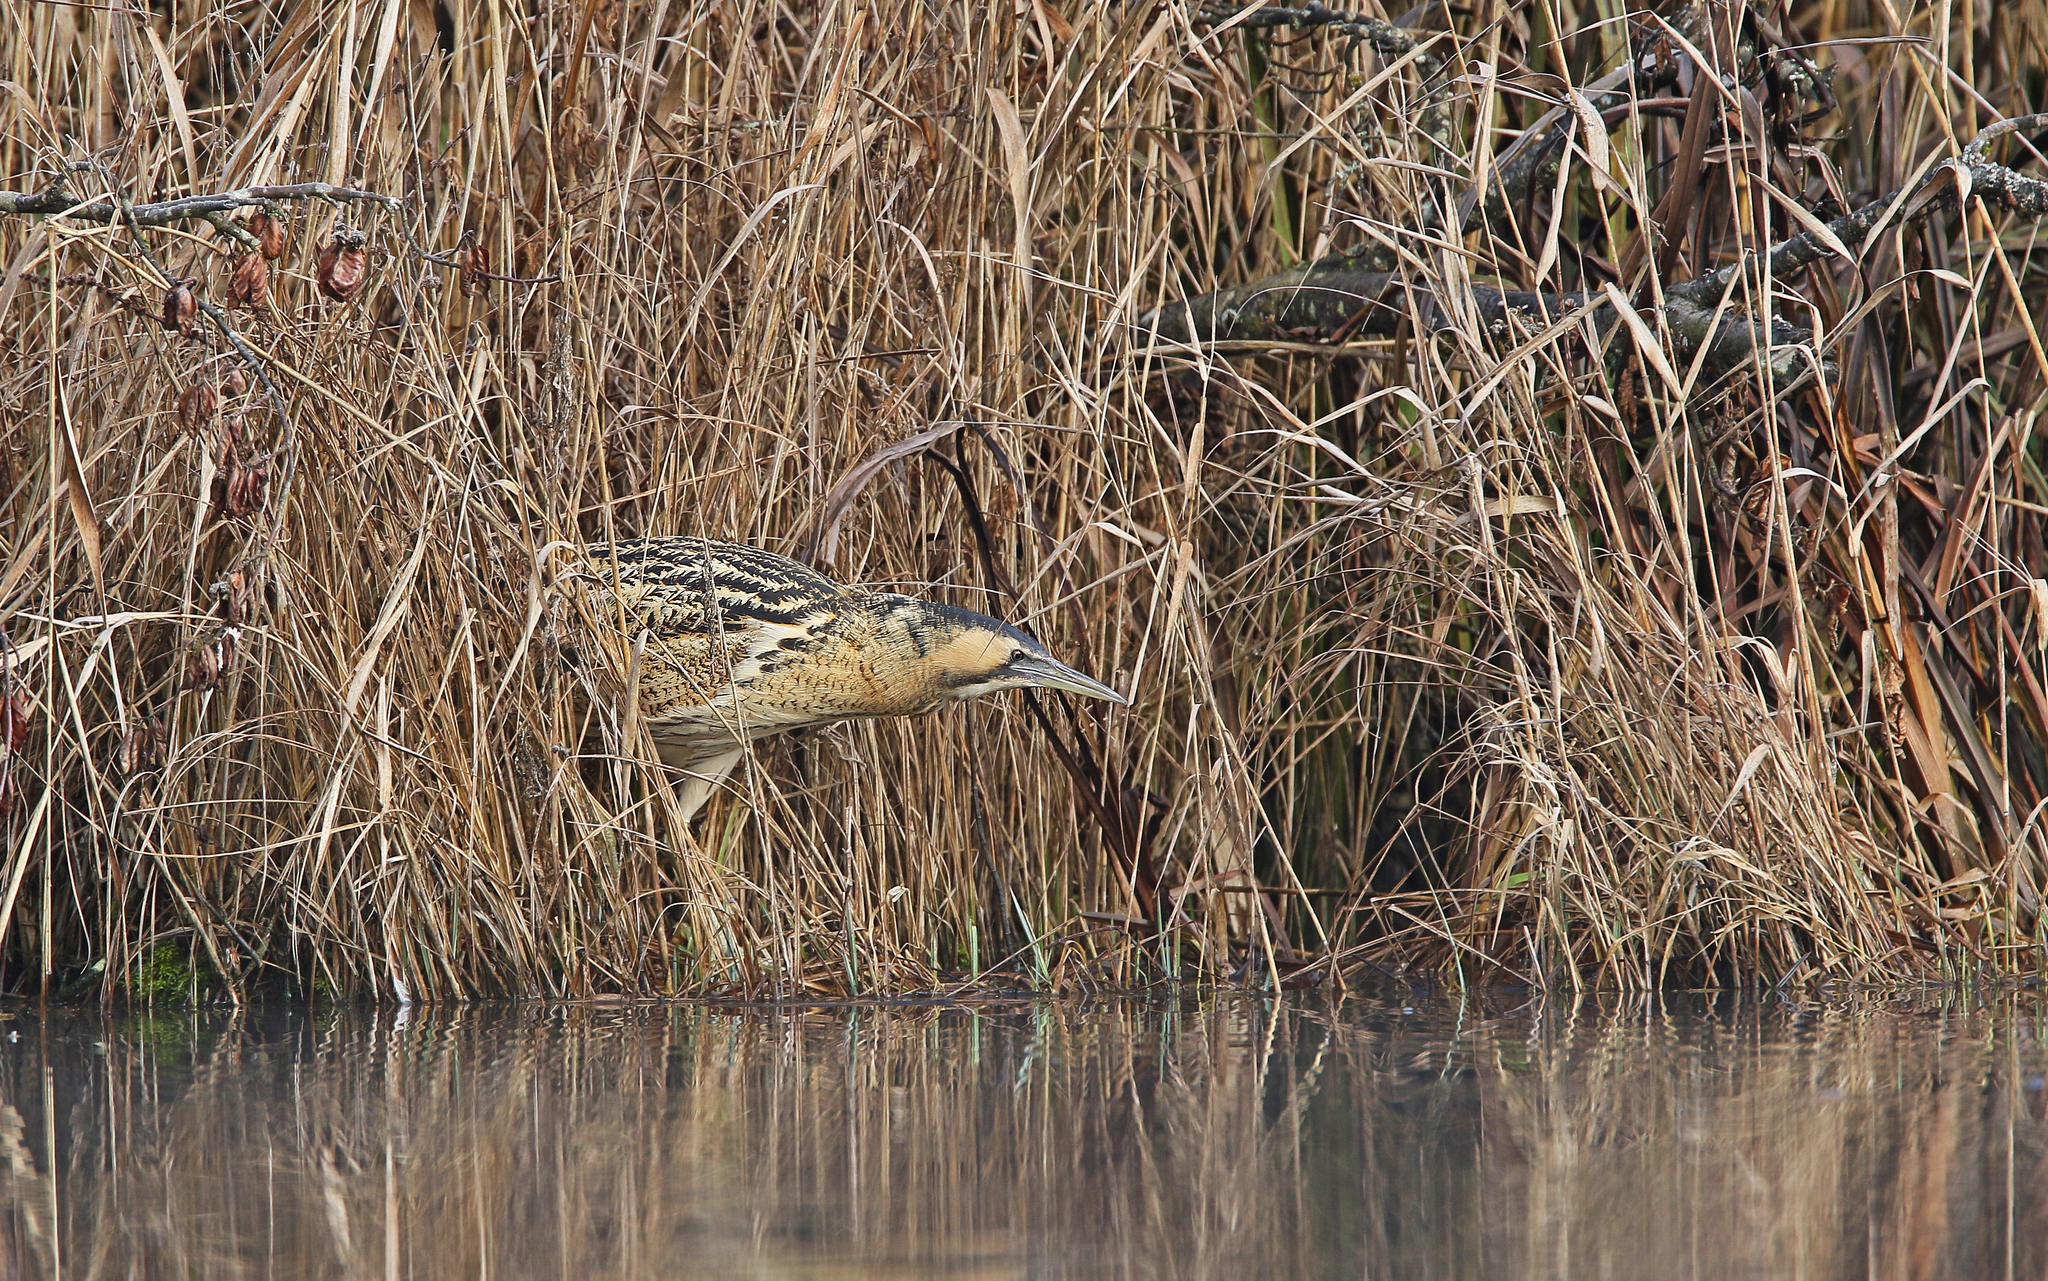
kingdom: Animalia
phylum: Chordata
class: Aves
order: Pelecaniformes
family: Ardeidae
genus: Botaurus
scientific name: Botaurus stellaris
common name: Eurasian bittern
